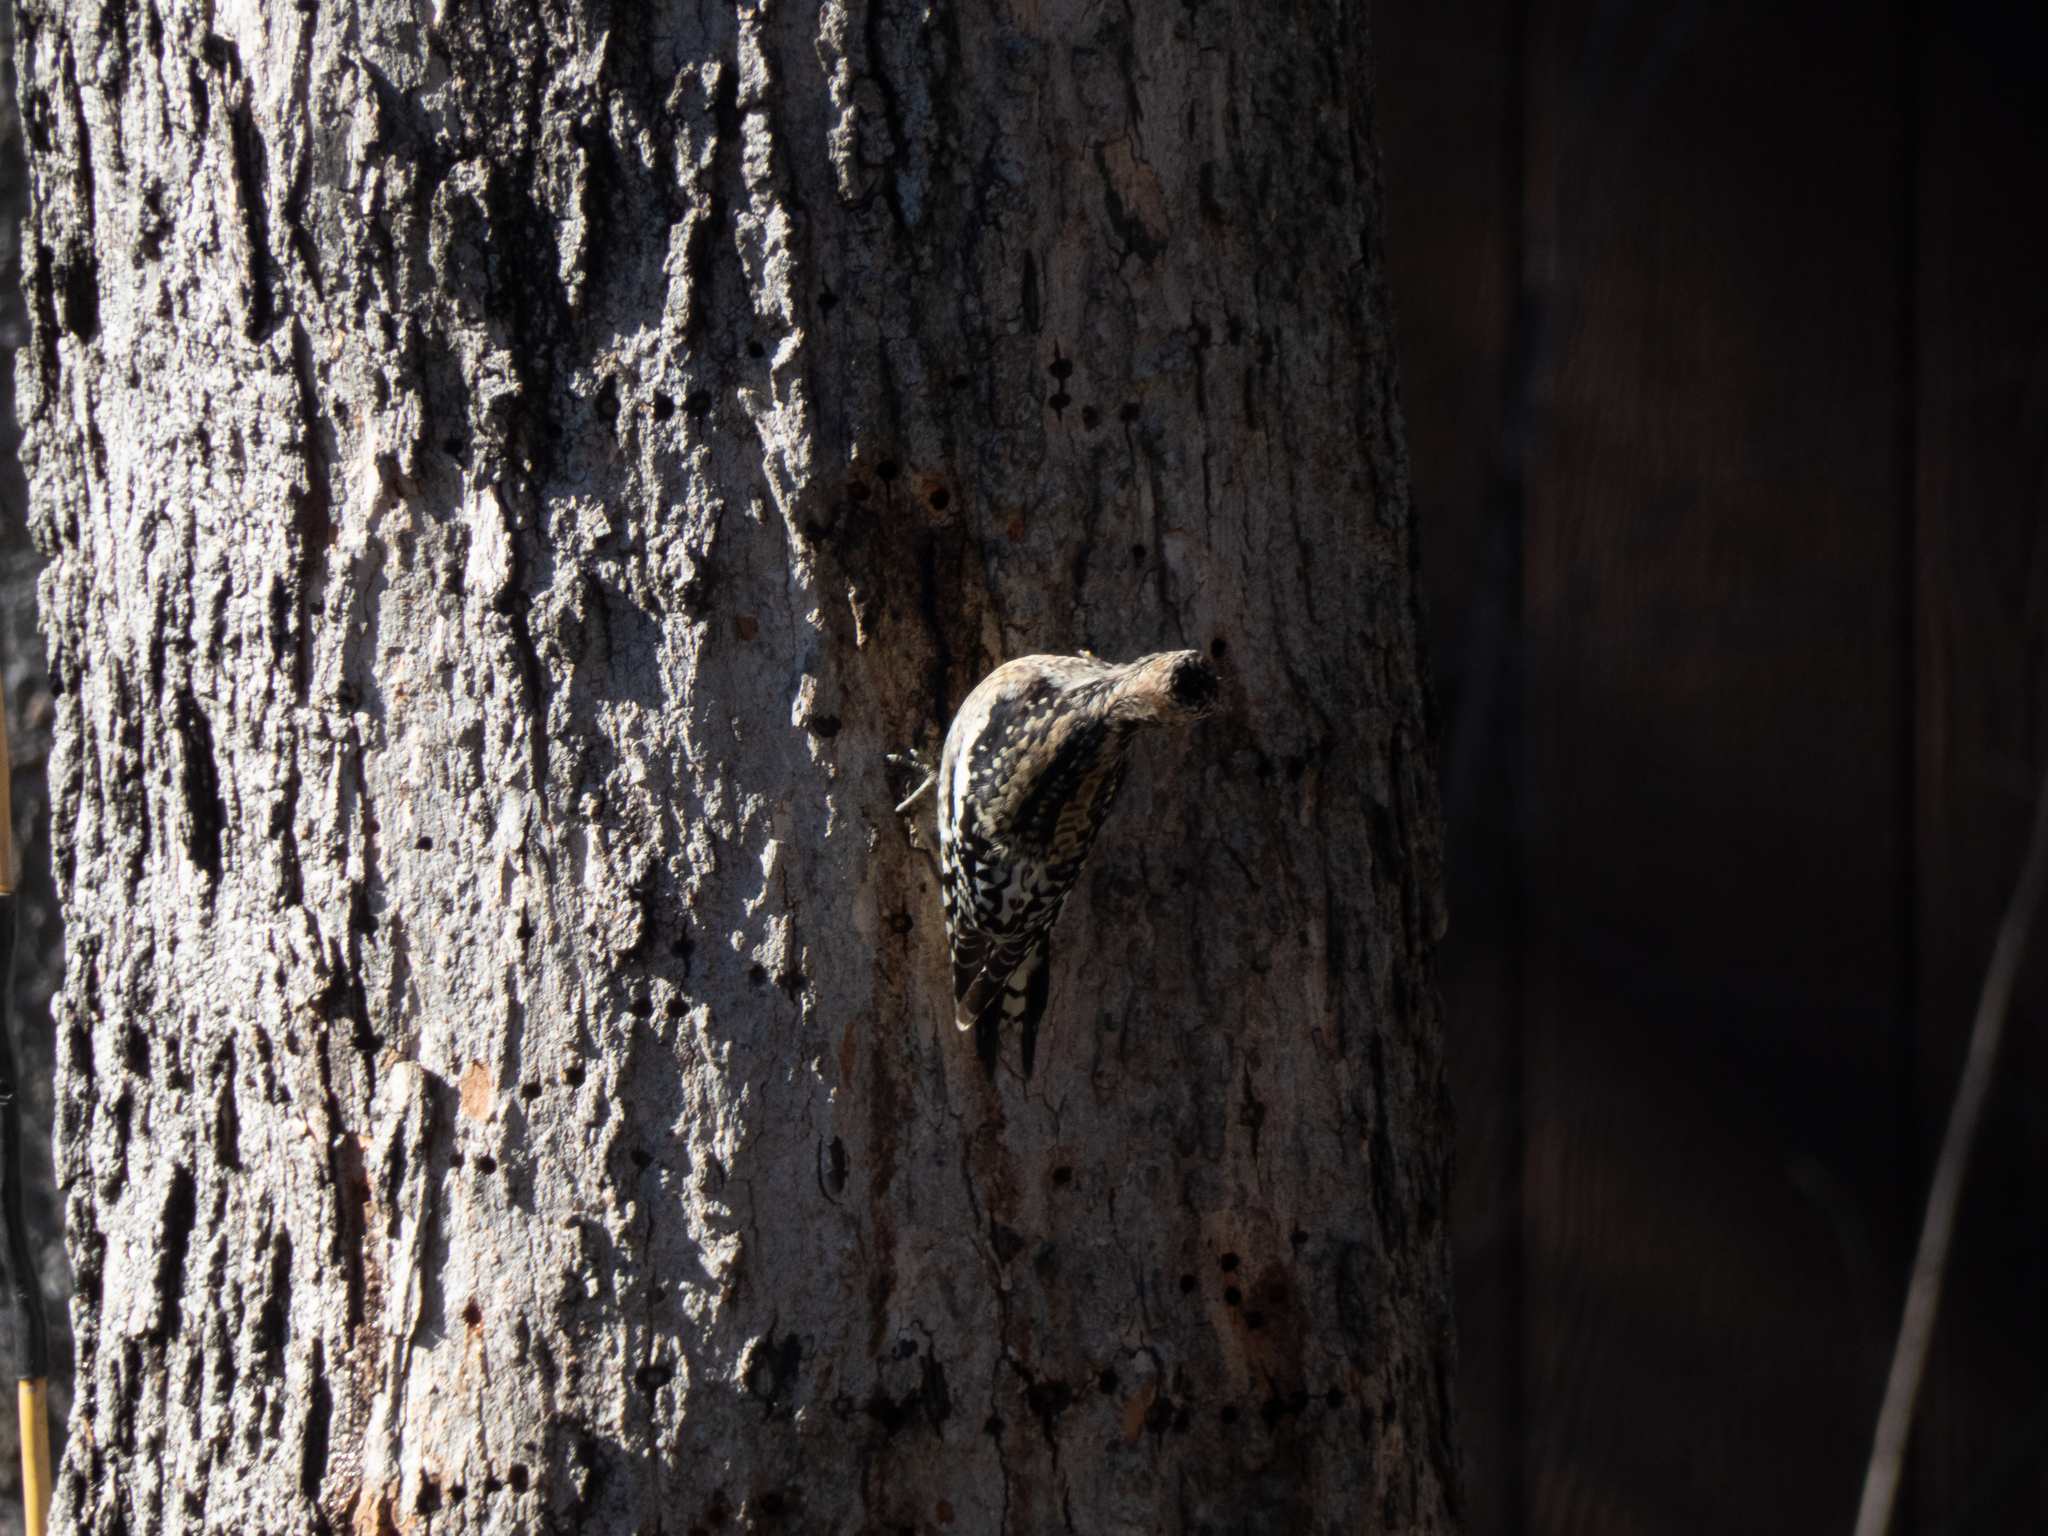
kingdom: Animalia
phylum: Chordata
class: Aves
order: Piciformes
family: Picidae
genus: Sphyrapicus
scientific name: Sphyrapicus varius
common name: Yellow-bellied sapsucker
